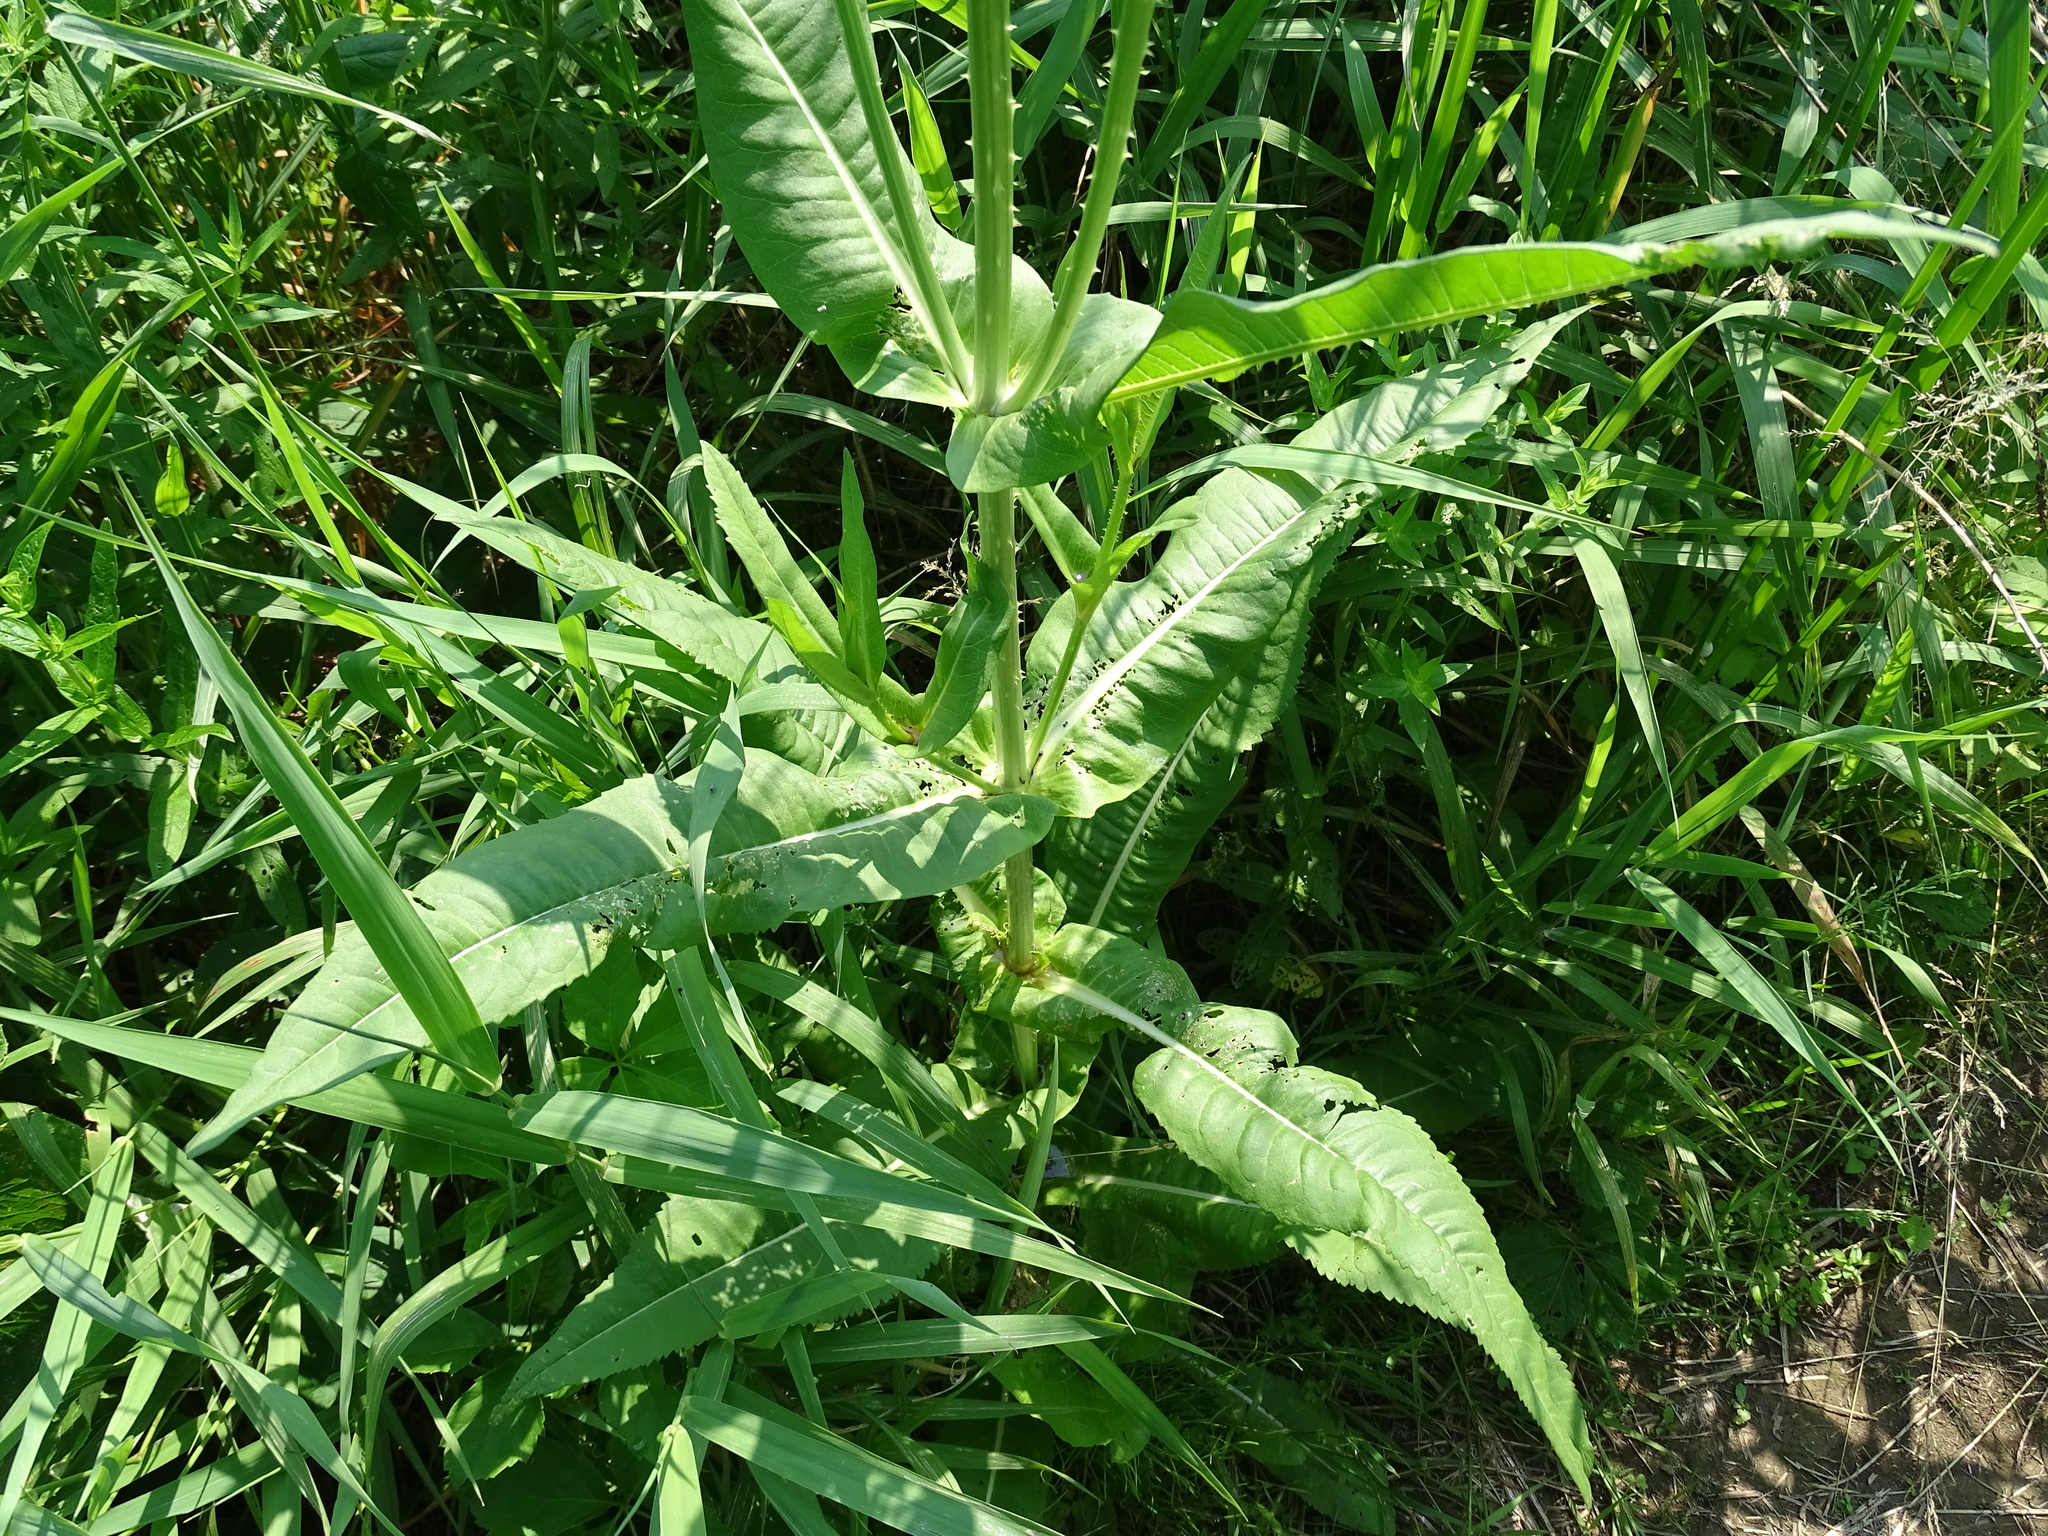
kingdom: Plantae
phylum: Tracheophyta
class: Magnoliopsida
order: Dipsacales
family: Caprifoliaceae
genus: Dipsacus
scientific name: Dipsacus fullonum
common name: Teasel
